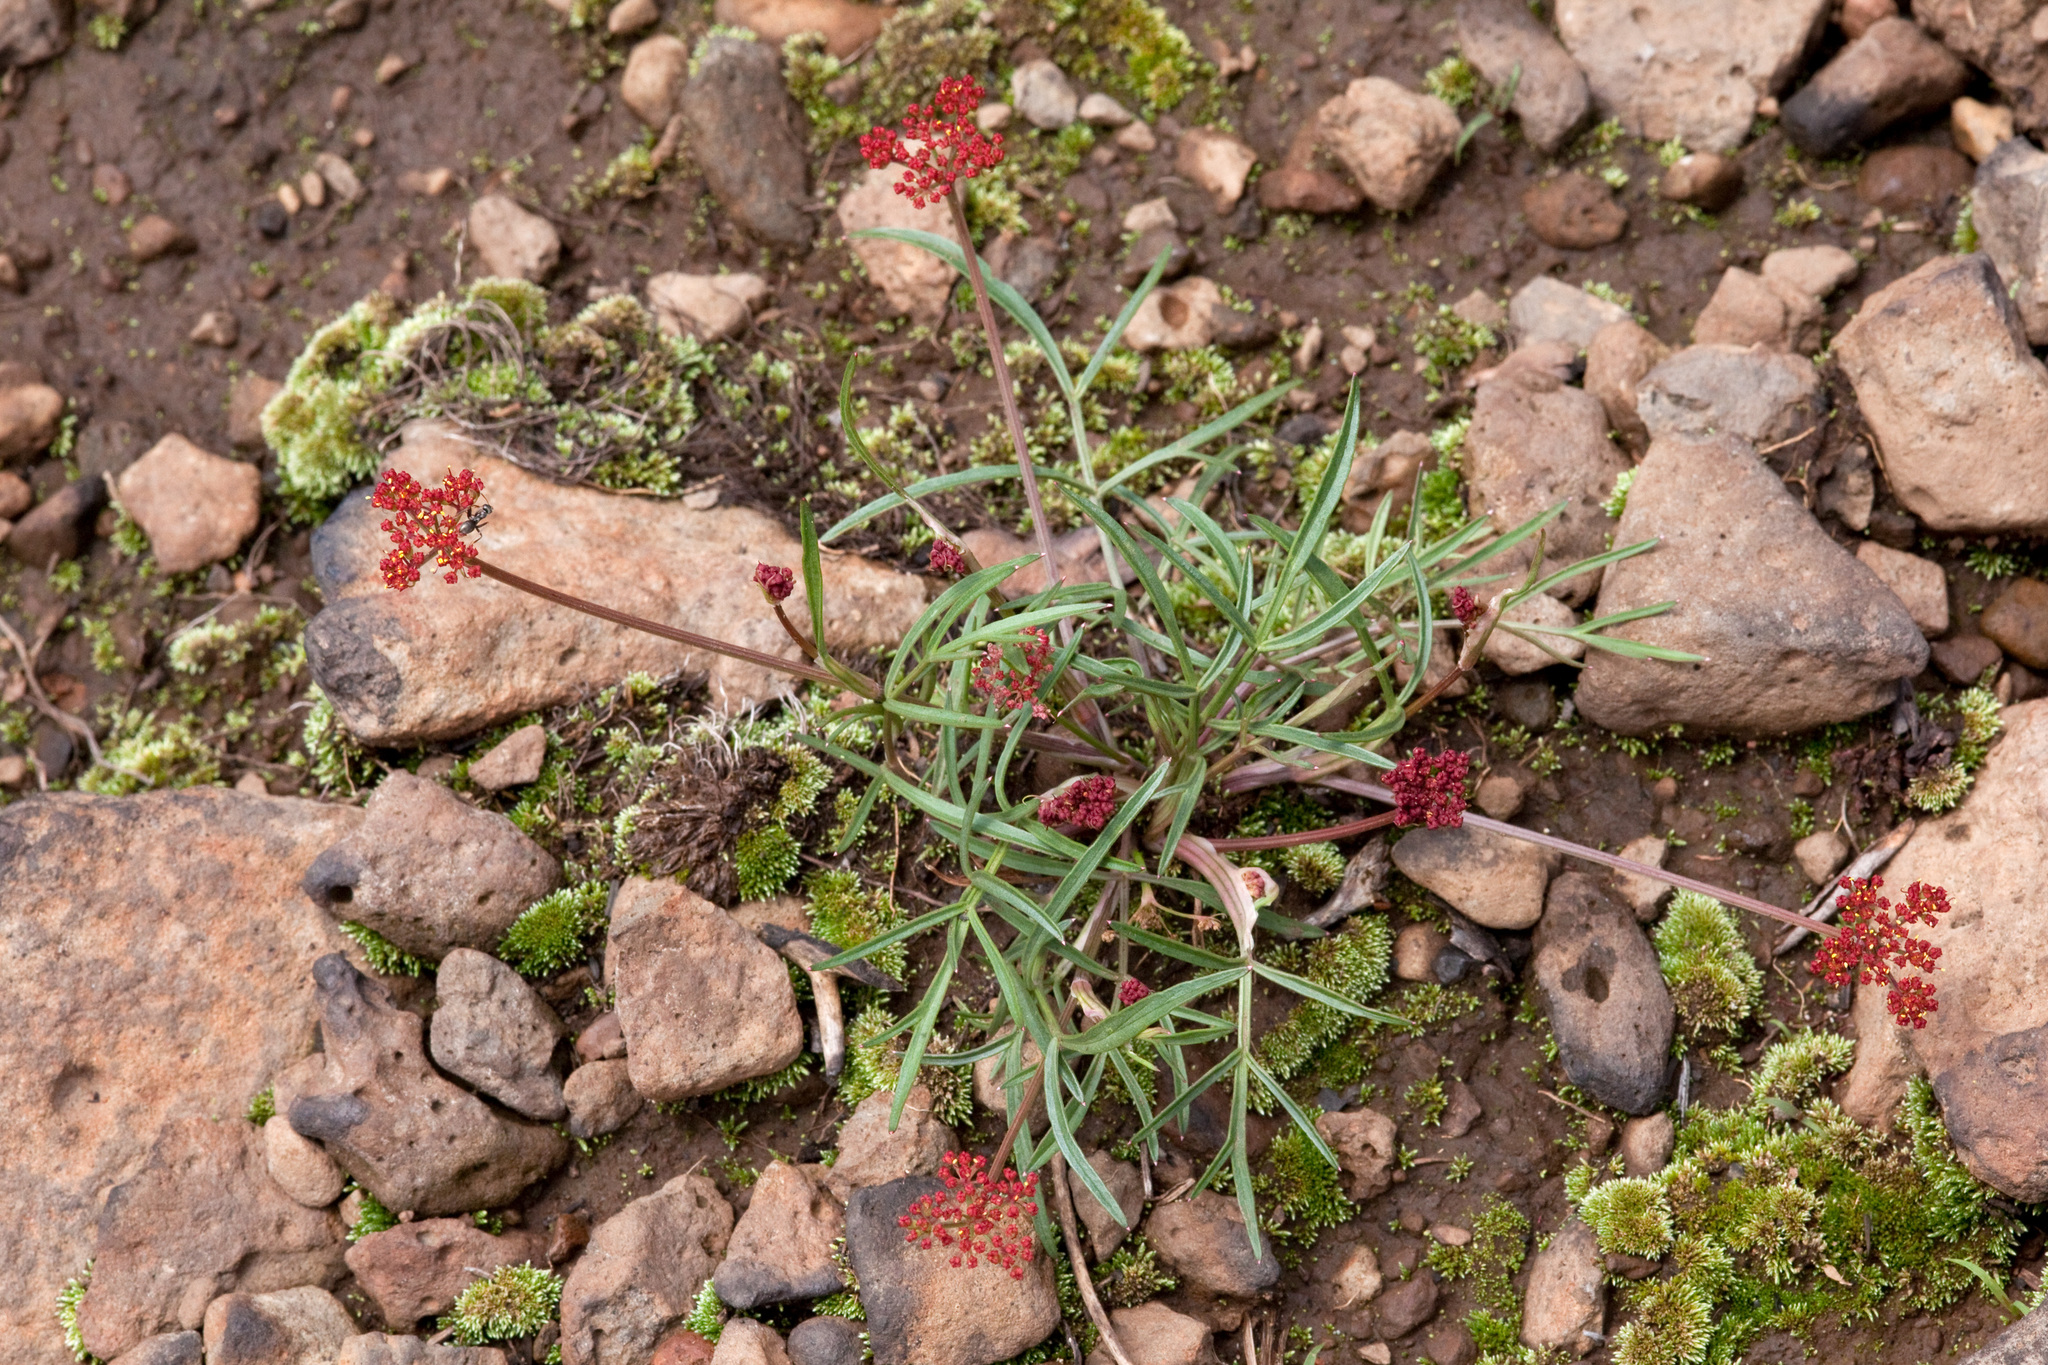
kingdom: Plantae
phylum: Tracheophyta
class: Magnoliopsida
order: Apiales
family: Apiaceae
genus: Cymopterus
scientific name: Cymopterus lemmonii
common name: Lemmon's spring-parsley
